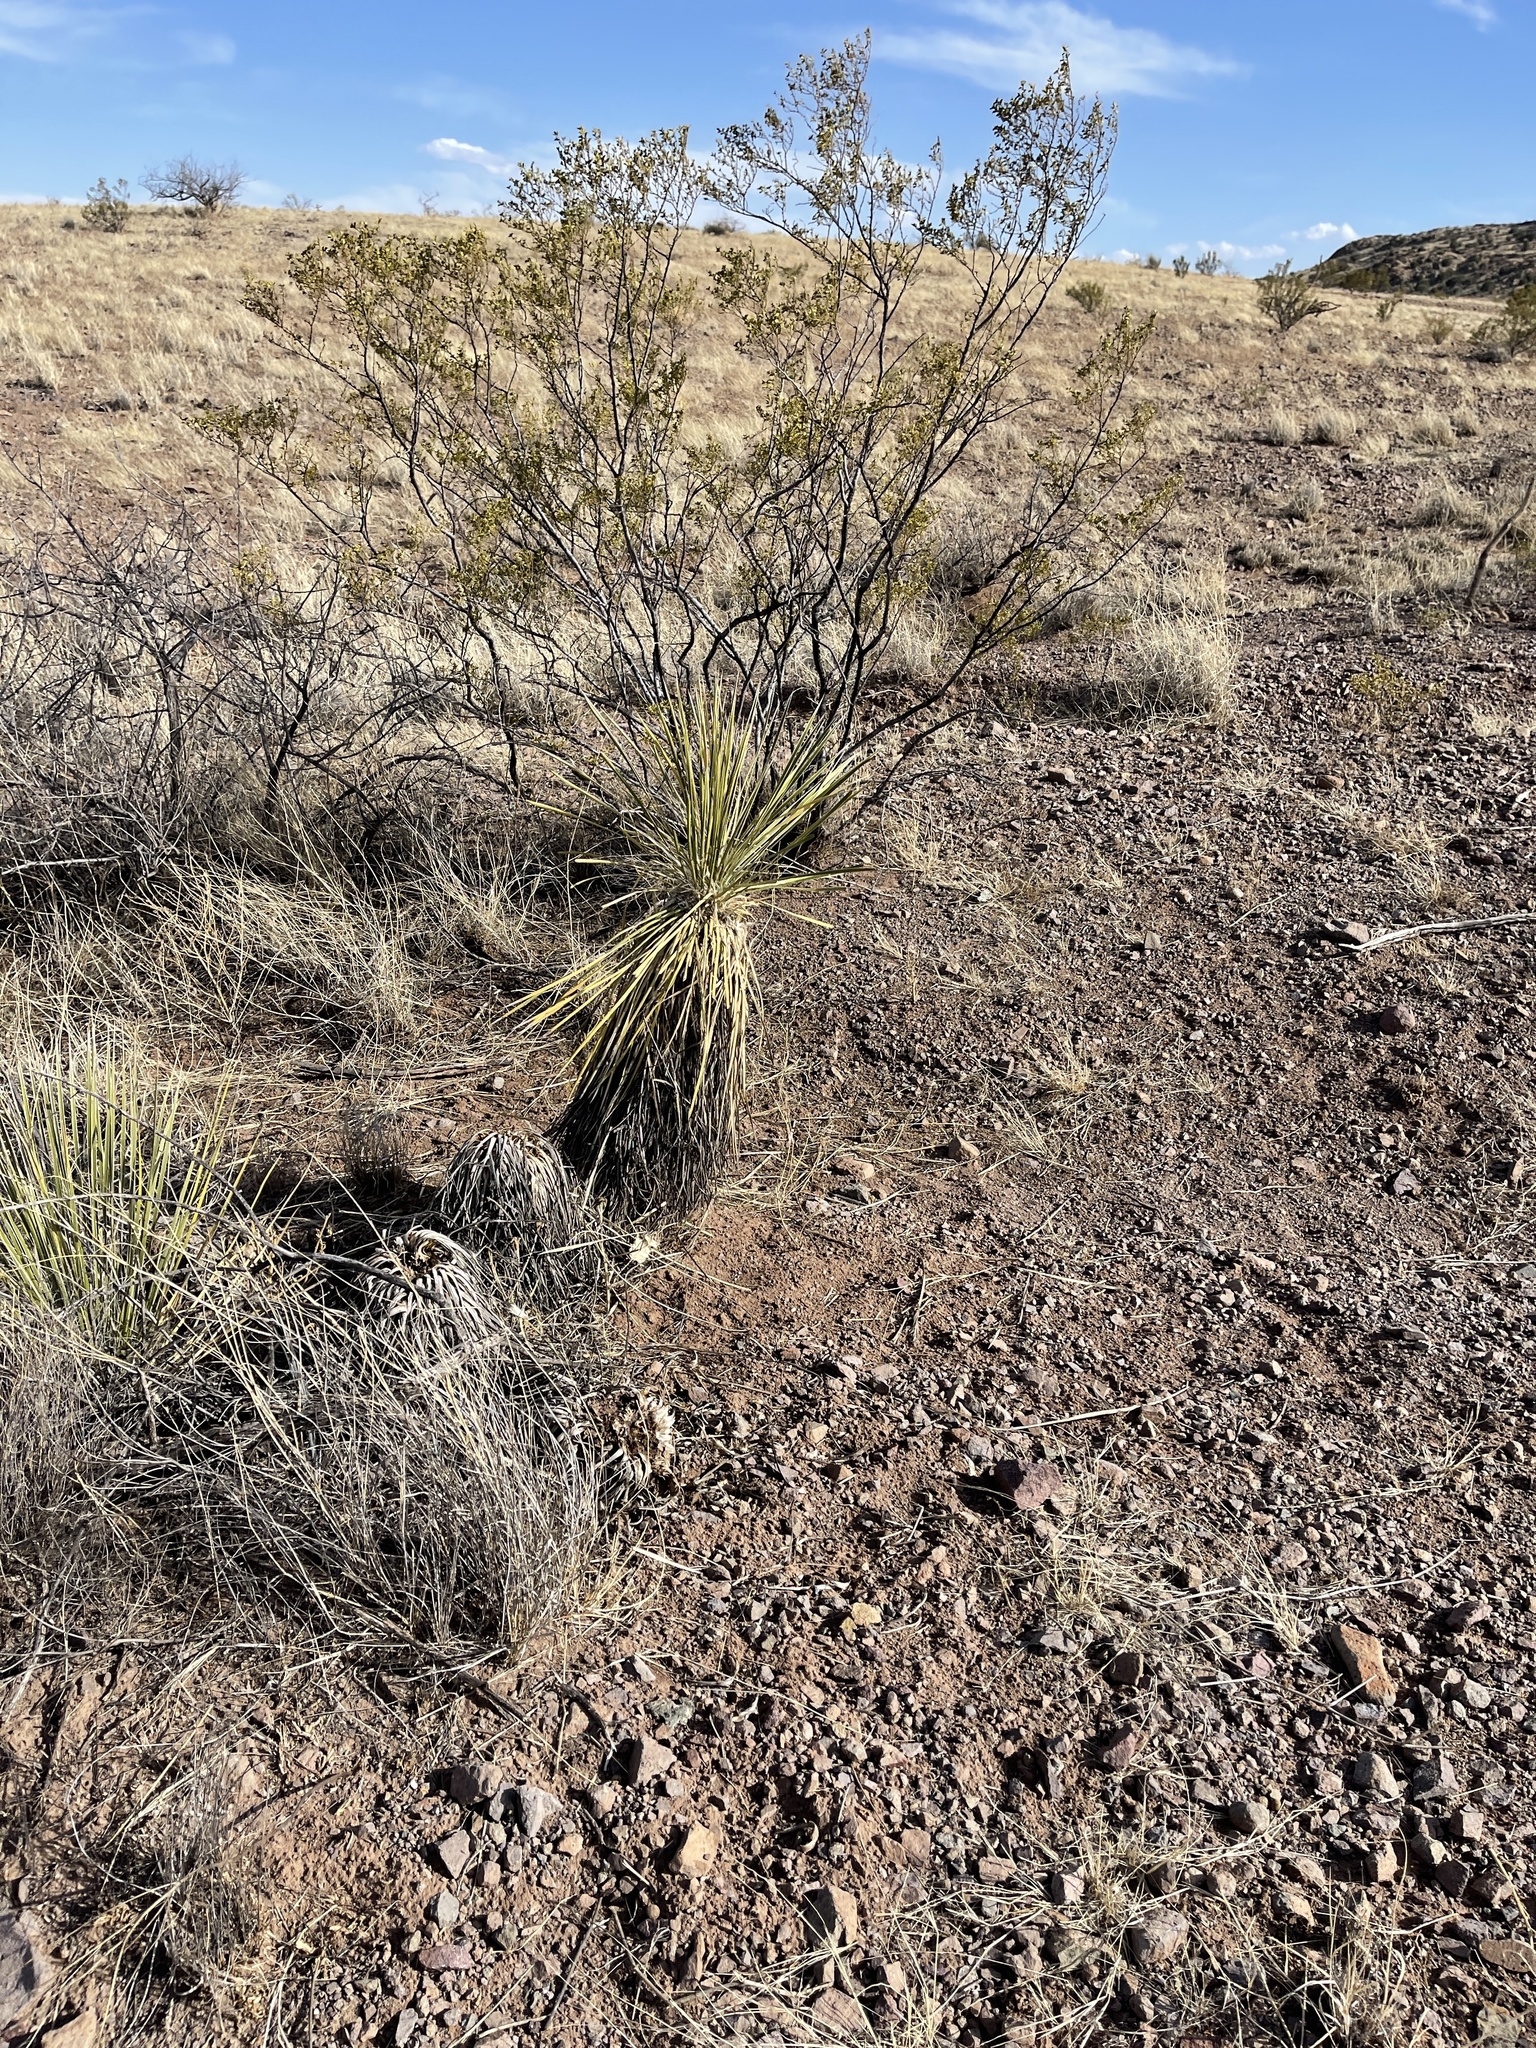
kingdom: Plantae
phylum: Tracheophyta
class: Magnoliopsida
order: Zygophyllales
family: Zygophyllaceae
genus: Larrea
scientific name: Larrea tridentata
